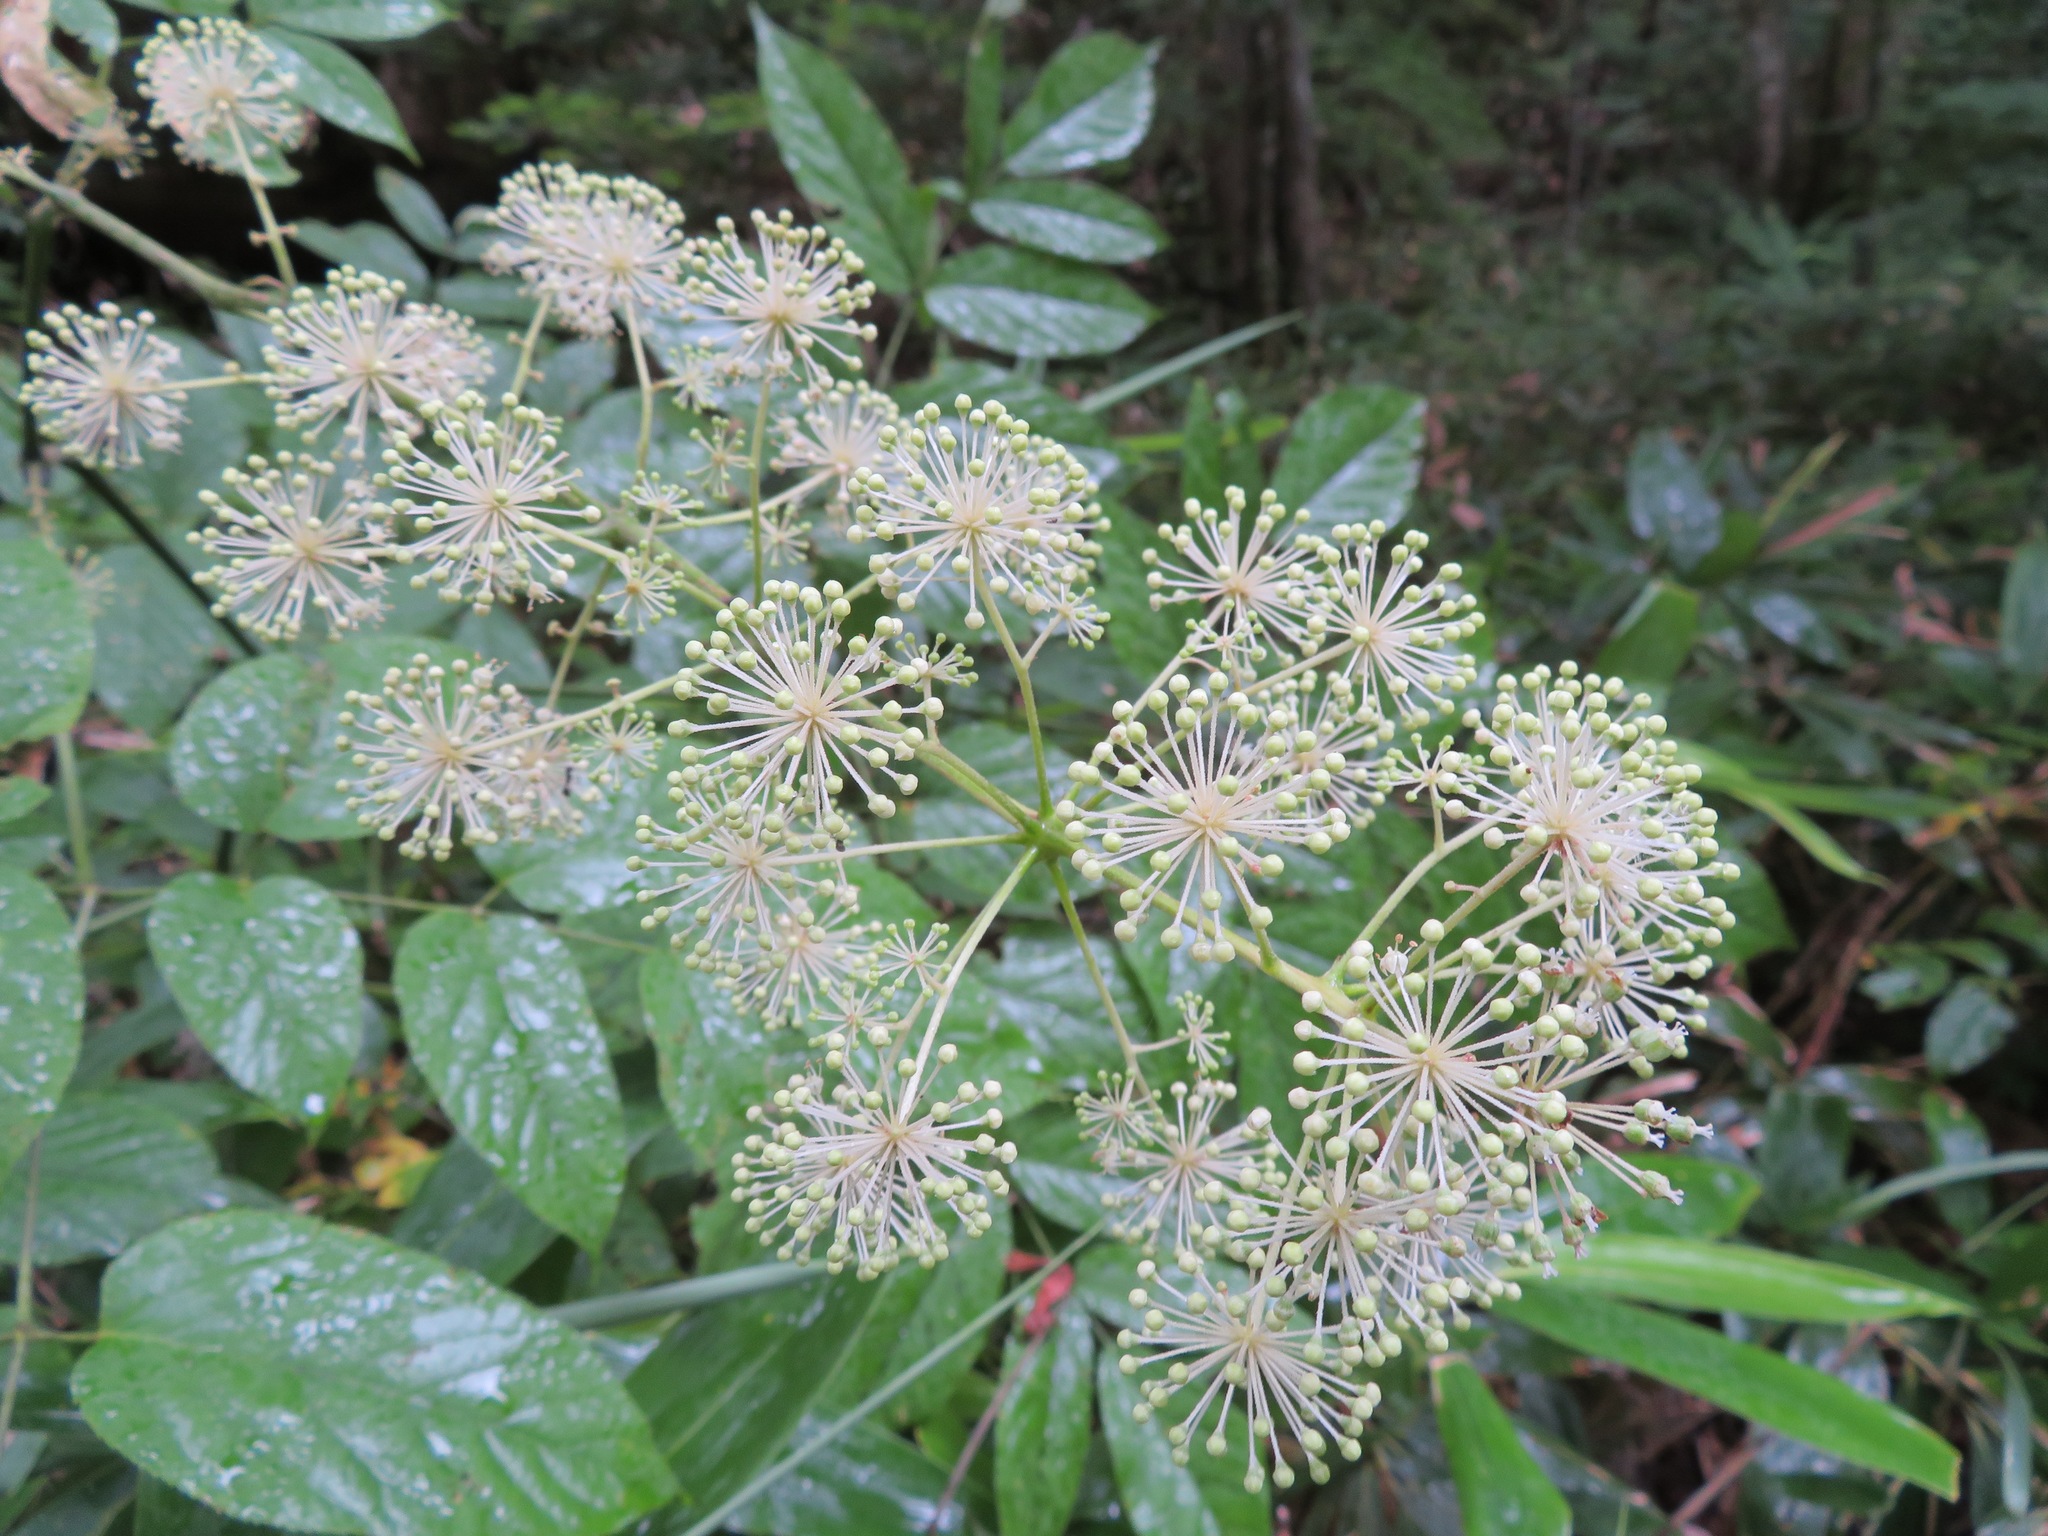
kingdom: Plantae
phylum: Tracheophyta
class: Magnoliopsida
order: Apiales
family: Araliaceae
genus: Aralia
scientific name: Aralia cordata
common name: Udo
